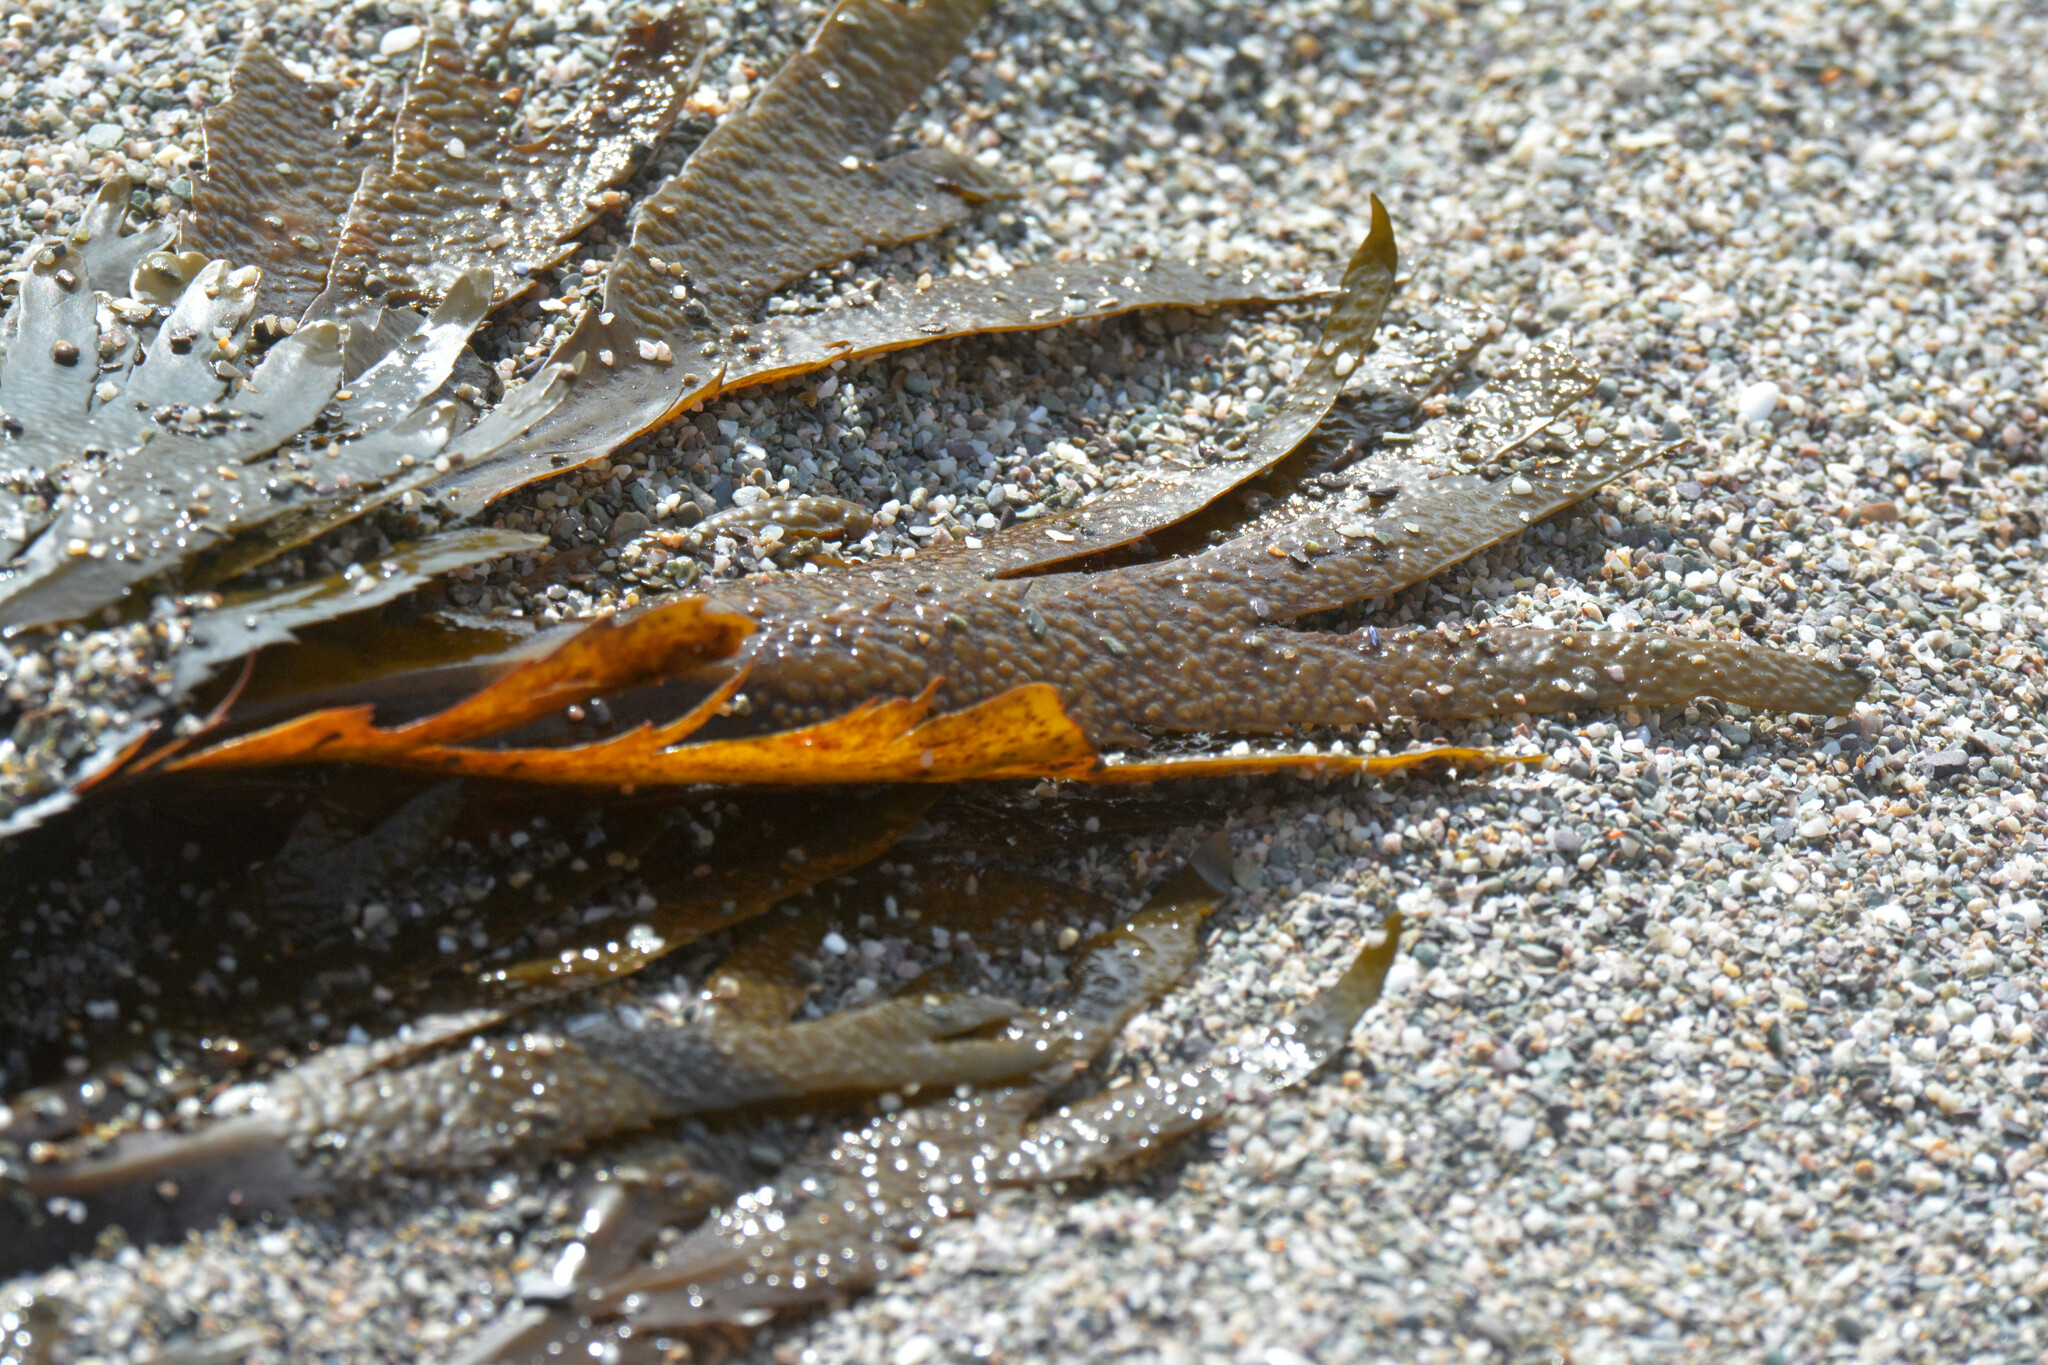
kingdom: Chromista
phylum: Ochrophyta
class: Phaeophyceae
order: Fucales
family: Fucaceae
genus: Fucus
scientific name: Fucus serratus
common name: Toothed wrack
